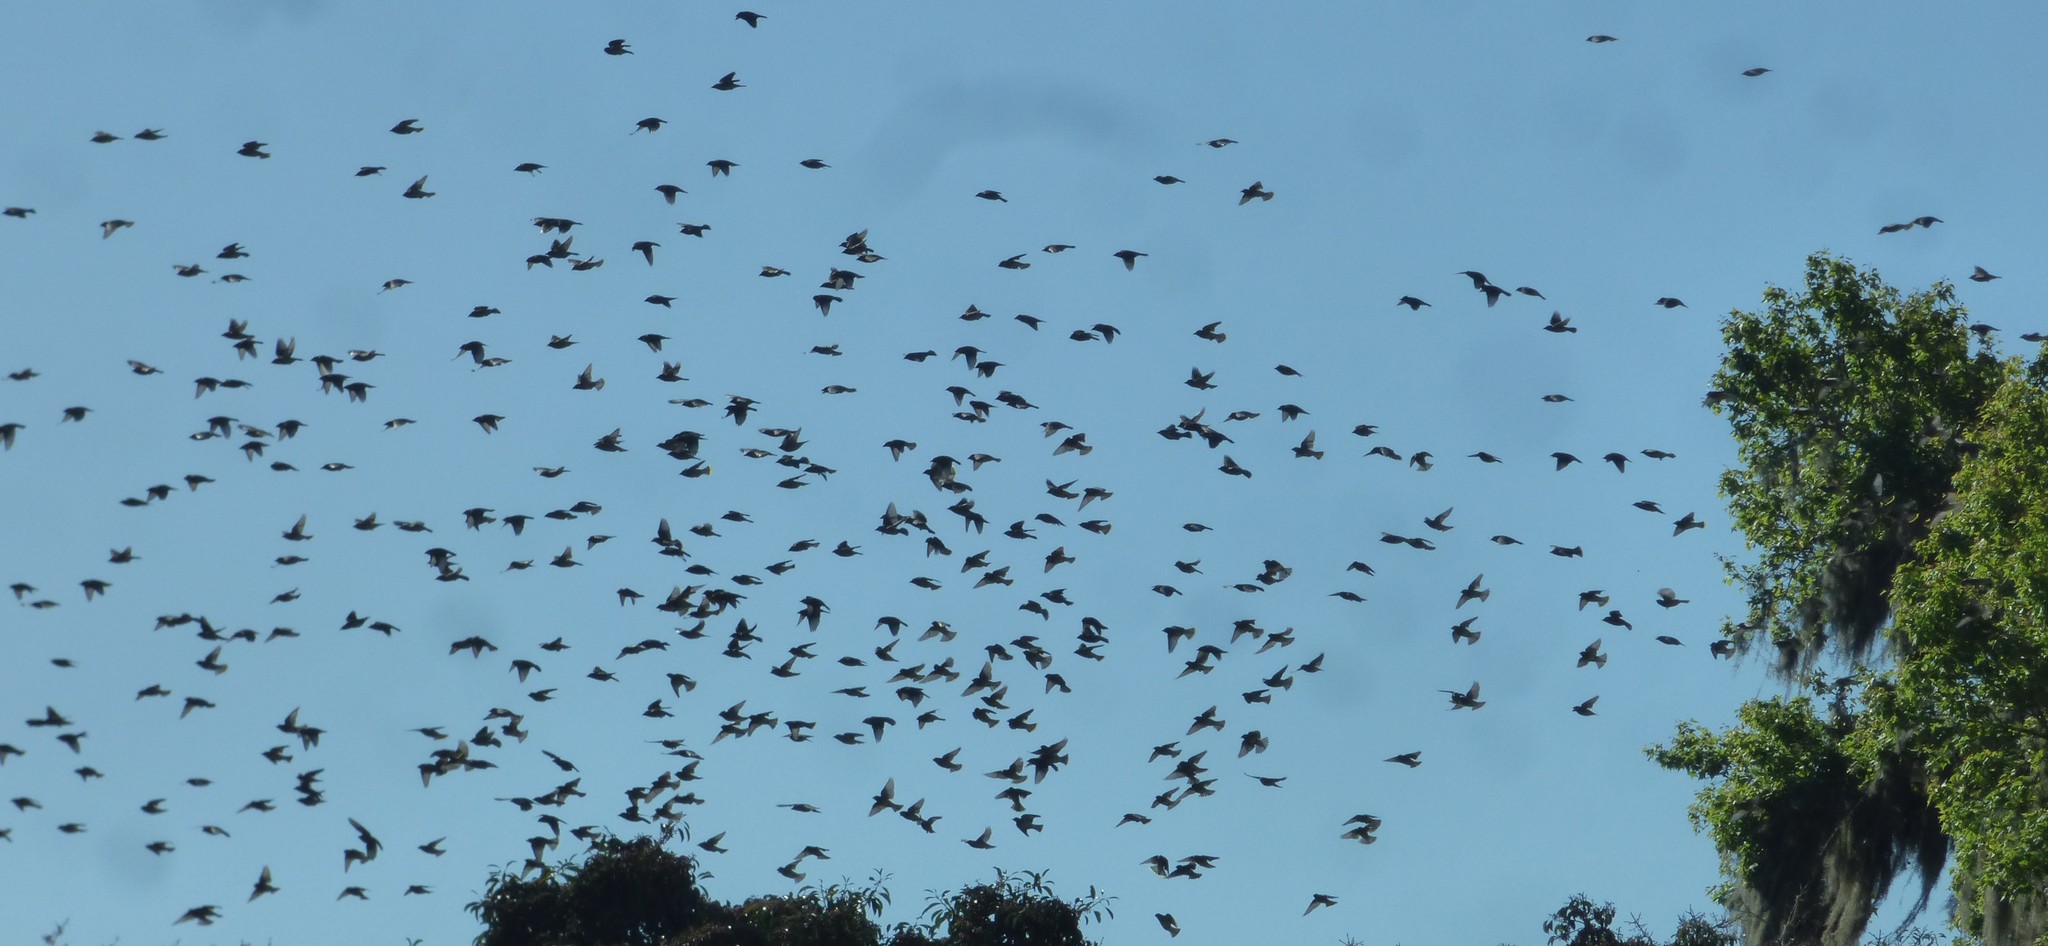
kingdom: Animalia
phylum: Chordata
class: Aves
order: Passeriformes
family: Bombycillidae
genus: Bombycilla
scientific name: Bombycilla cedrorum
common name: Cedar waxwing
